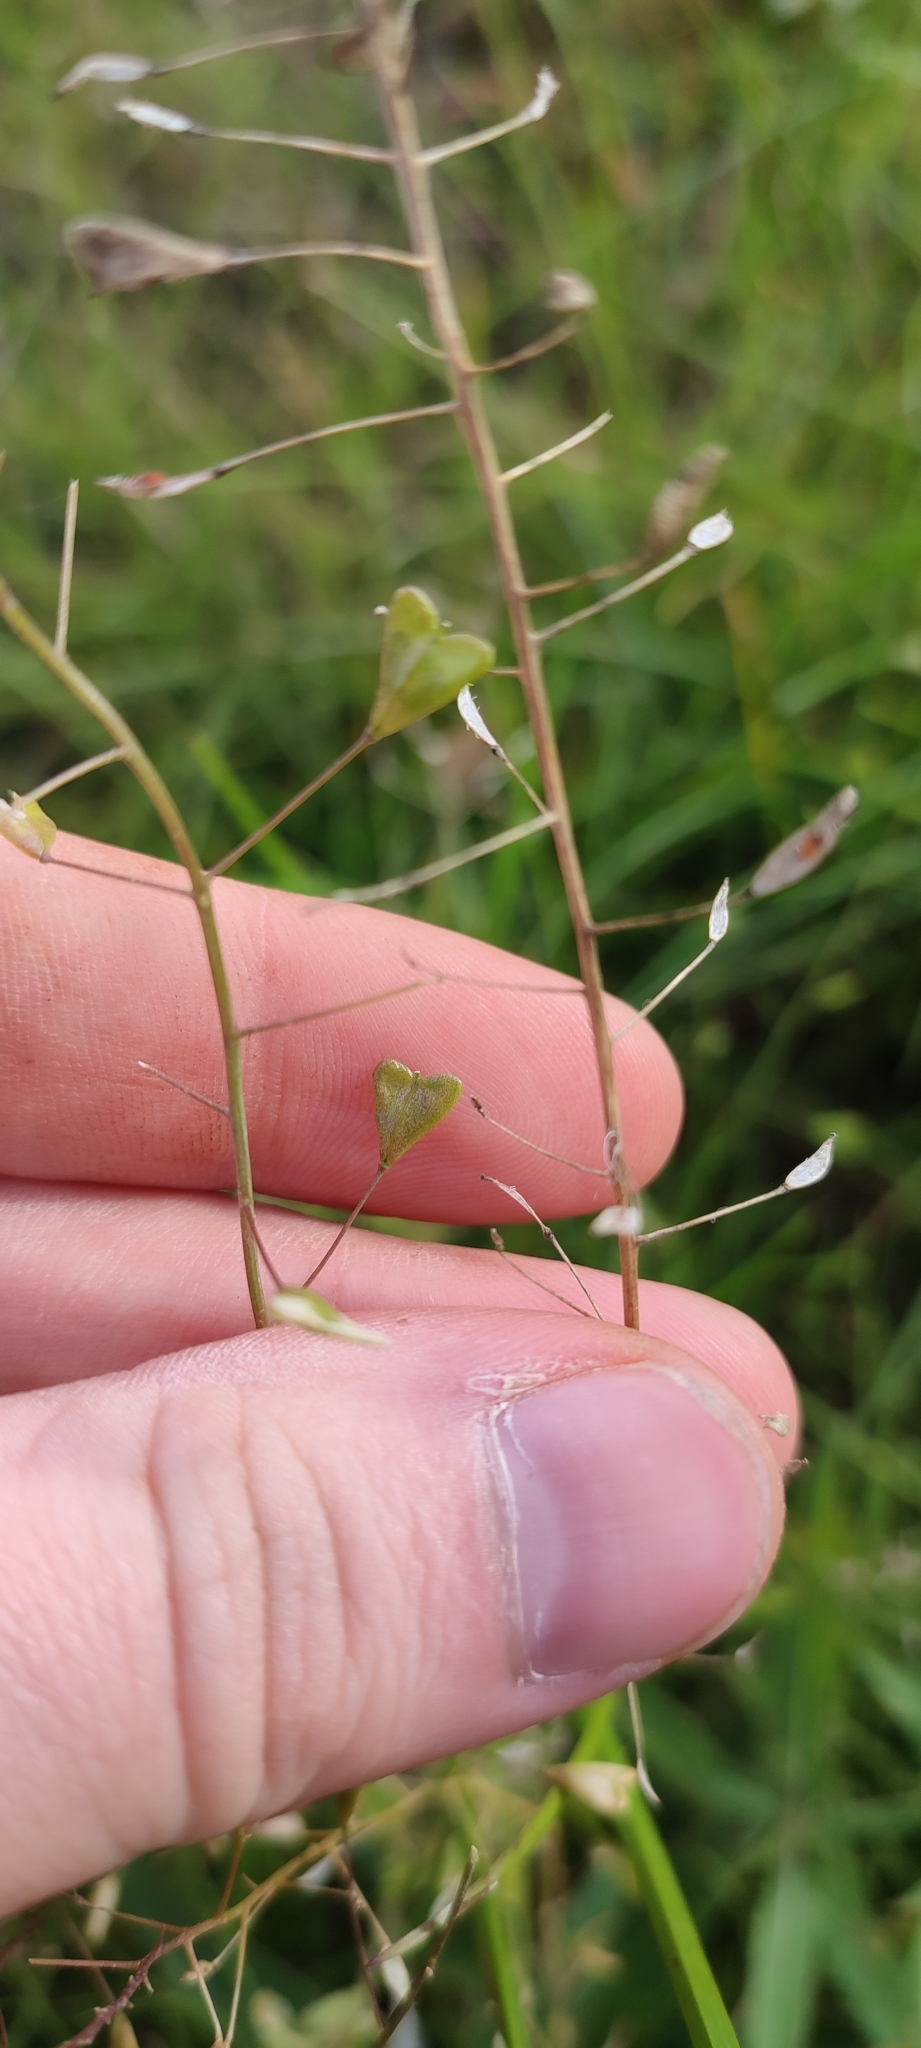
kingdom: Plantae
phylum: Tracheophyta
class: Magnoliopsida
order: Brassicales
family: Brassicaceae
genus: Capsella
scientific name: Capsella bursa-pastoris
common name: Shepherd's purse
